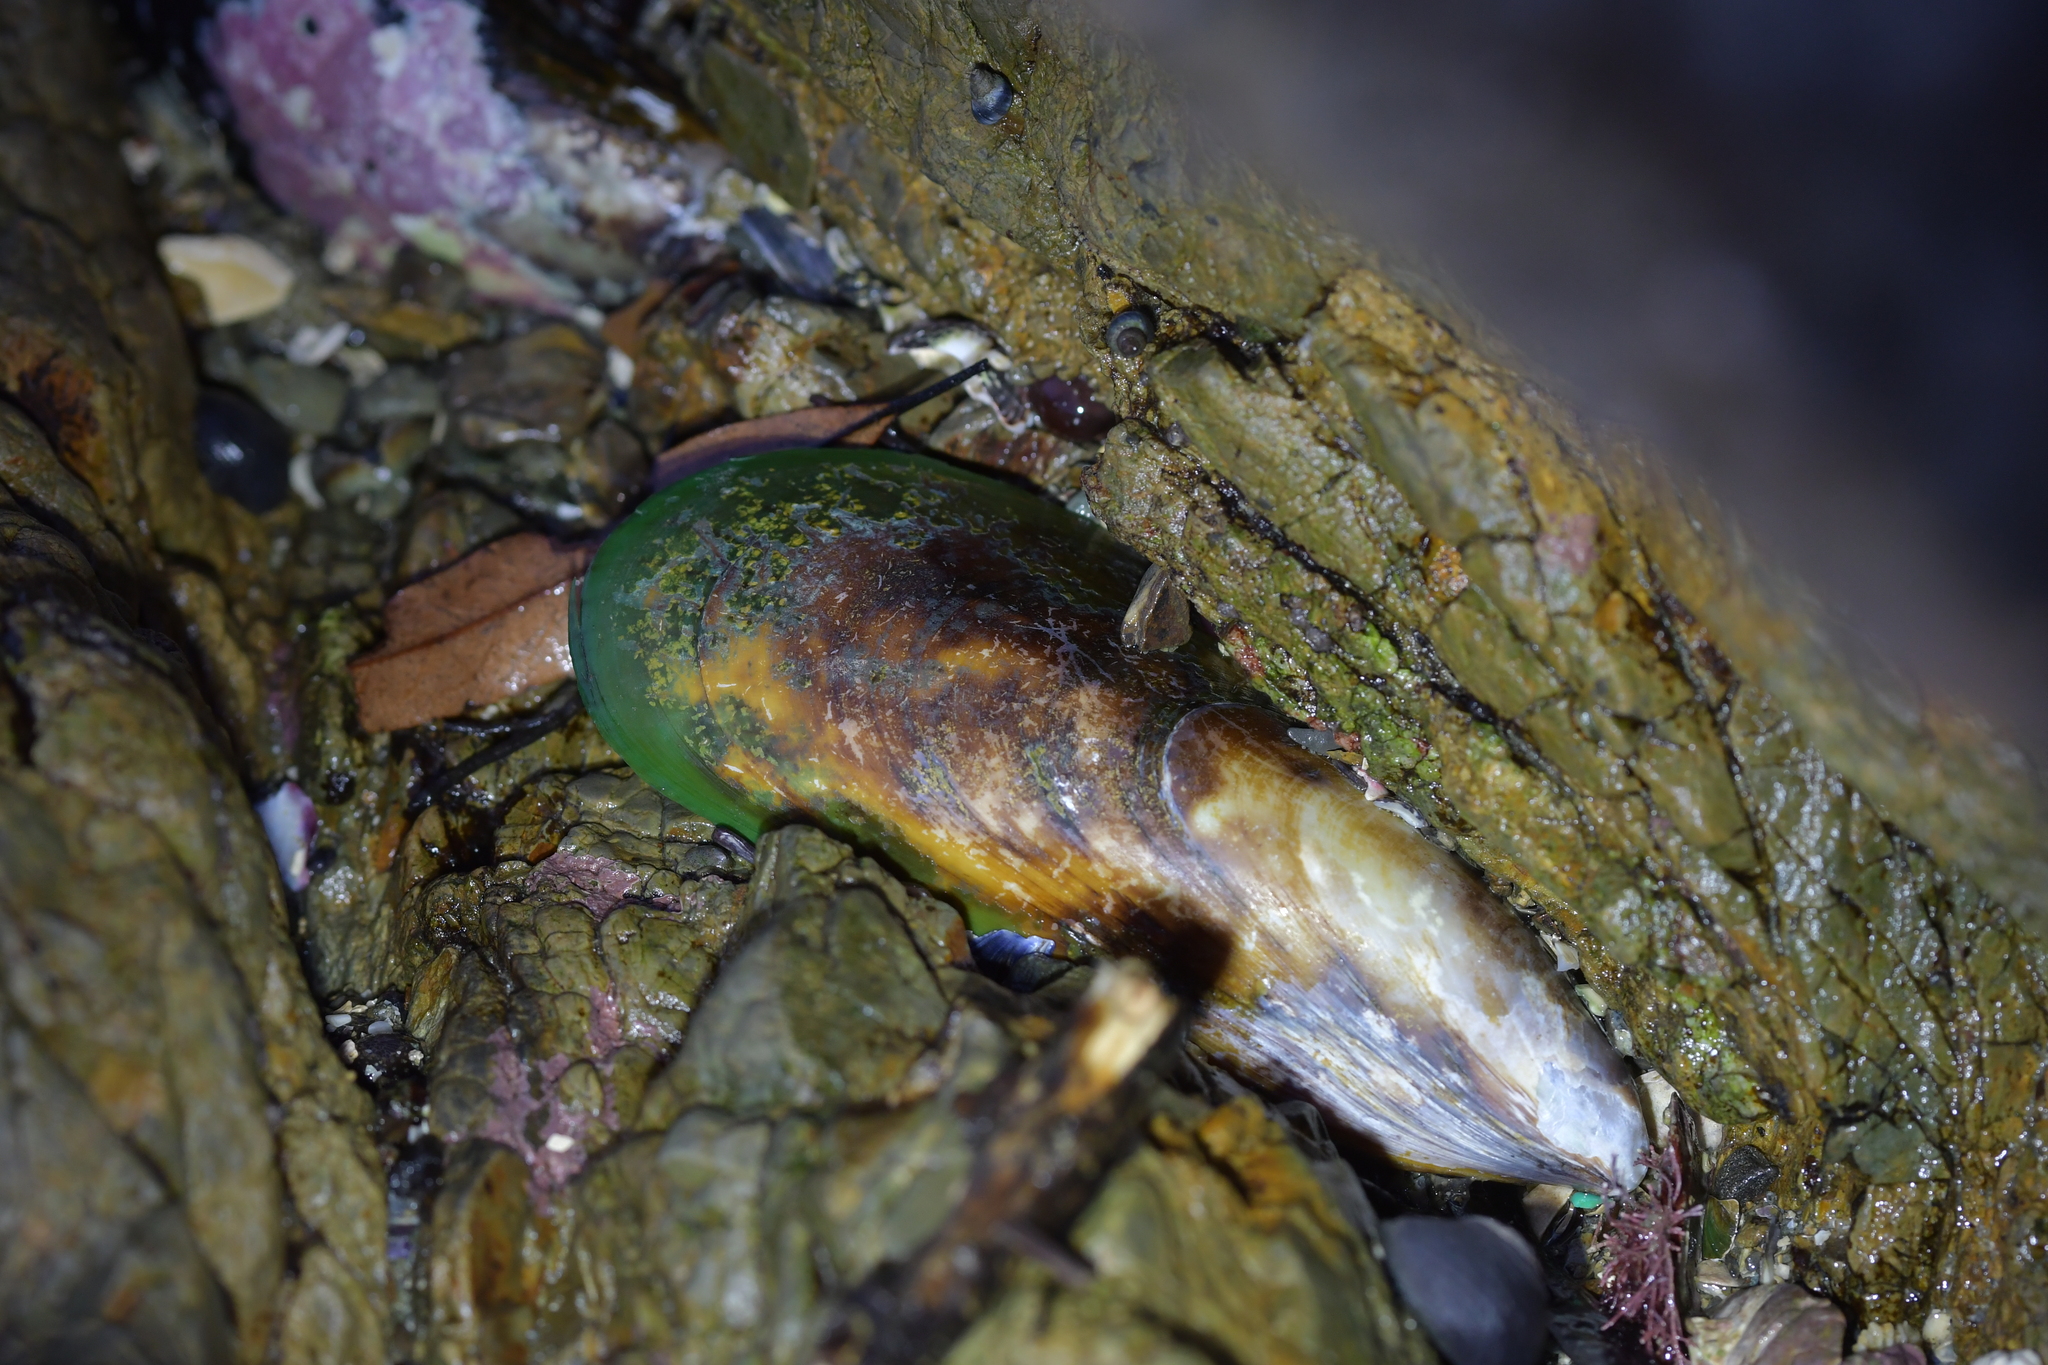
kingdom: Animalia
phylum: Mollusca
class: Bivalvia
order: Mytilida
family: Mytilidae
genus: Perna
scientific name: Perna canaliculus
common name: New zealand greenshelltm
